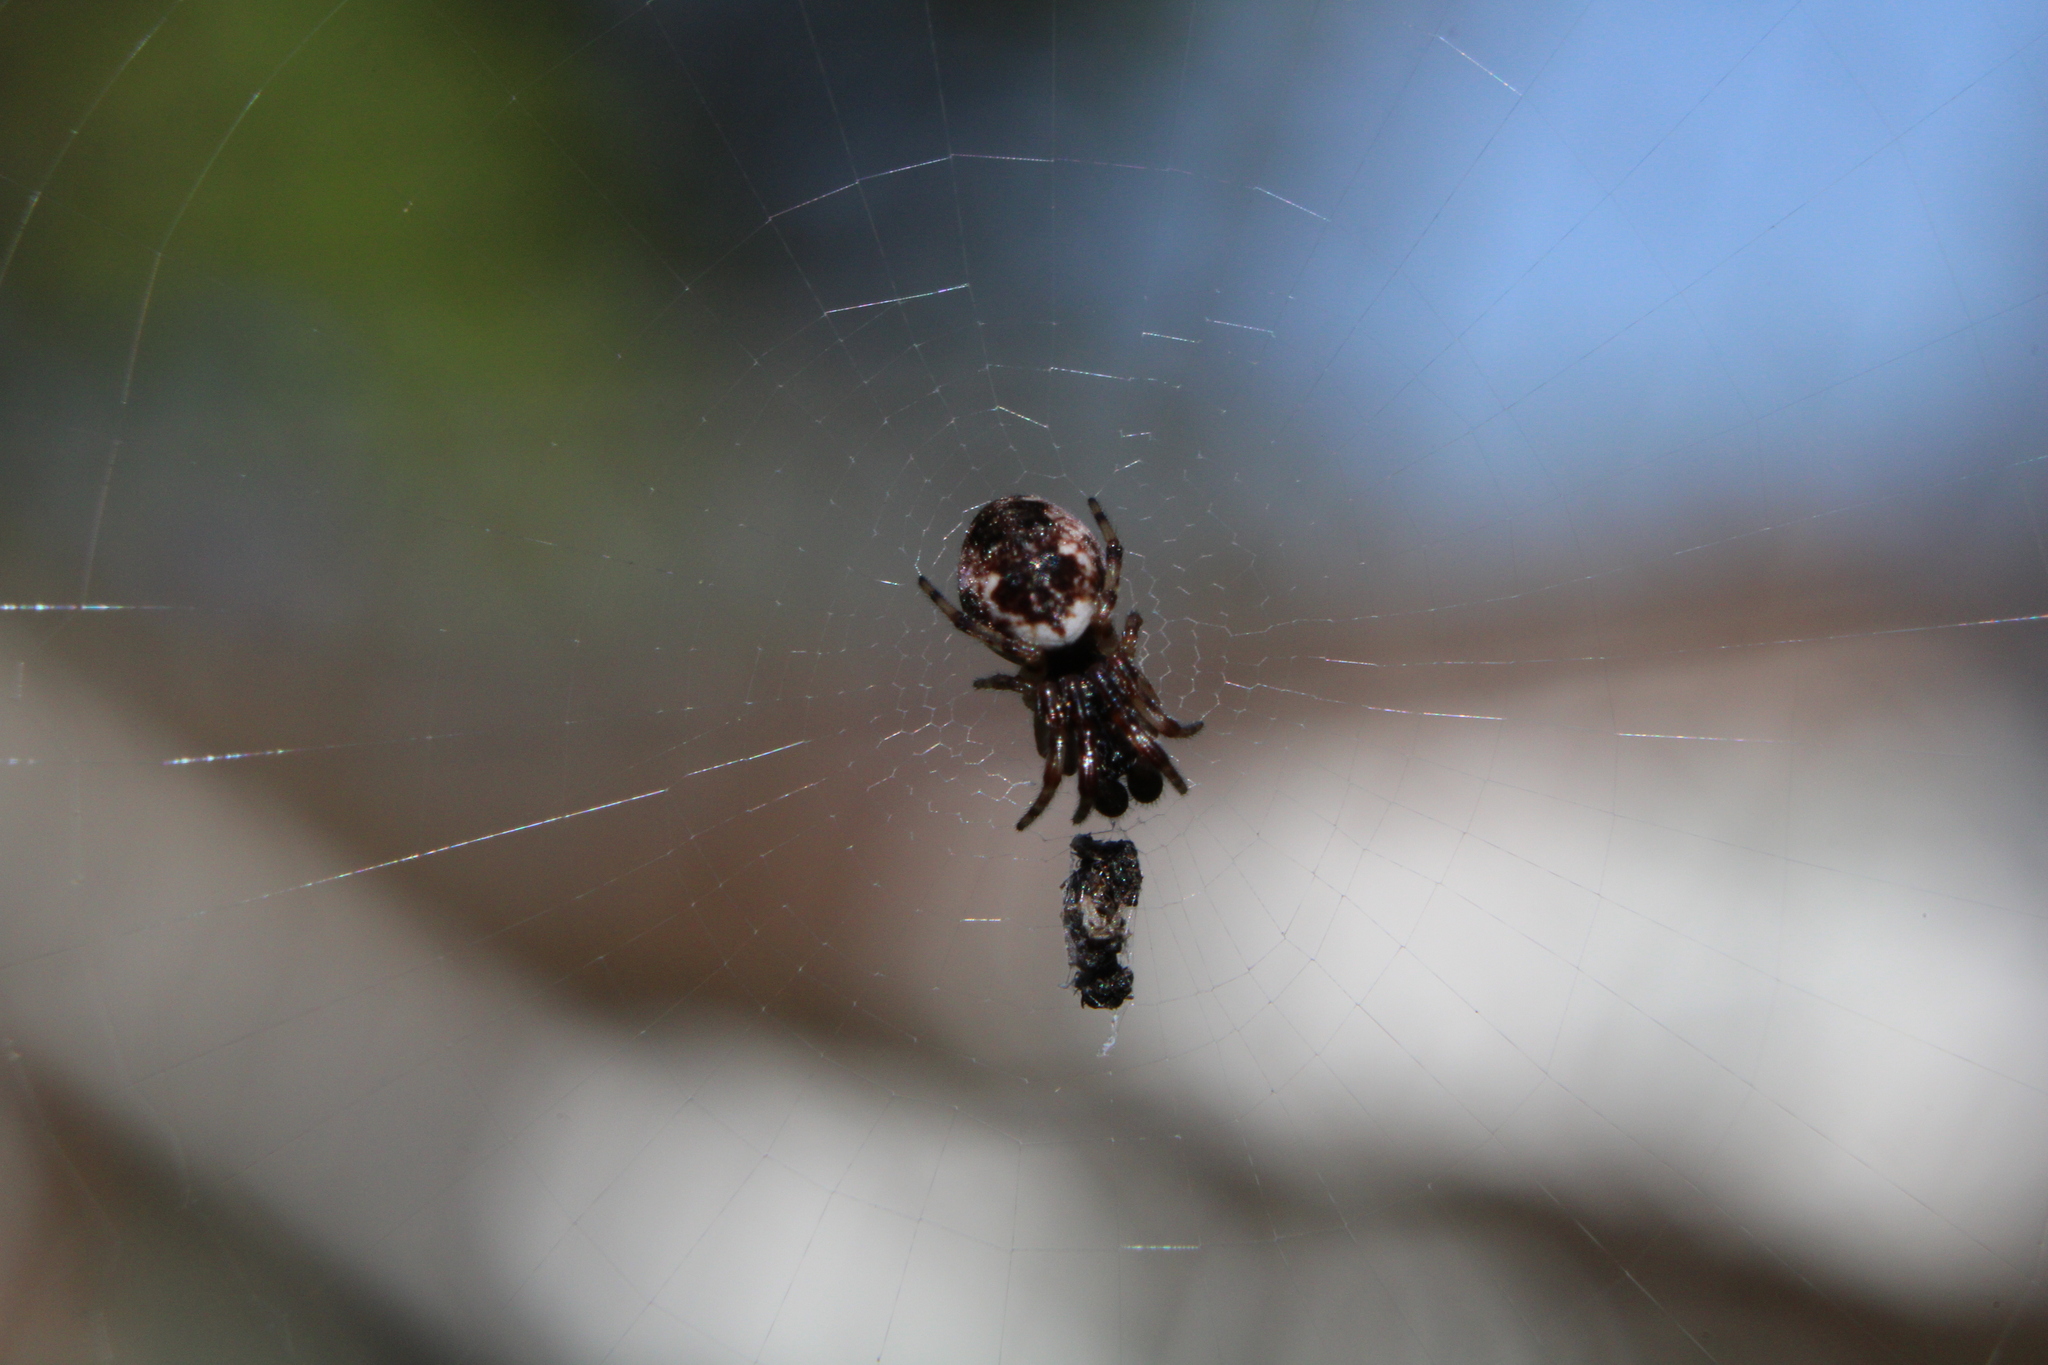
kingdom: Animalia
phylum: Arthropoda
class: Arachnida
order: Araneae
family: Araneidae
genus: Cyclosa
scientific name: Cyclosa turbinata
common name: Orb weavers
